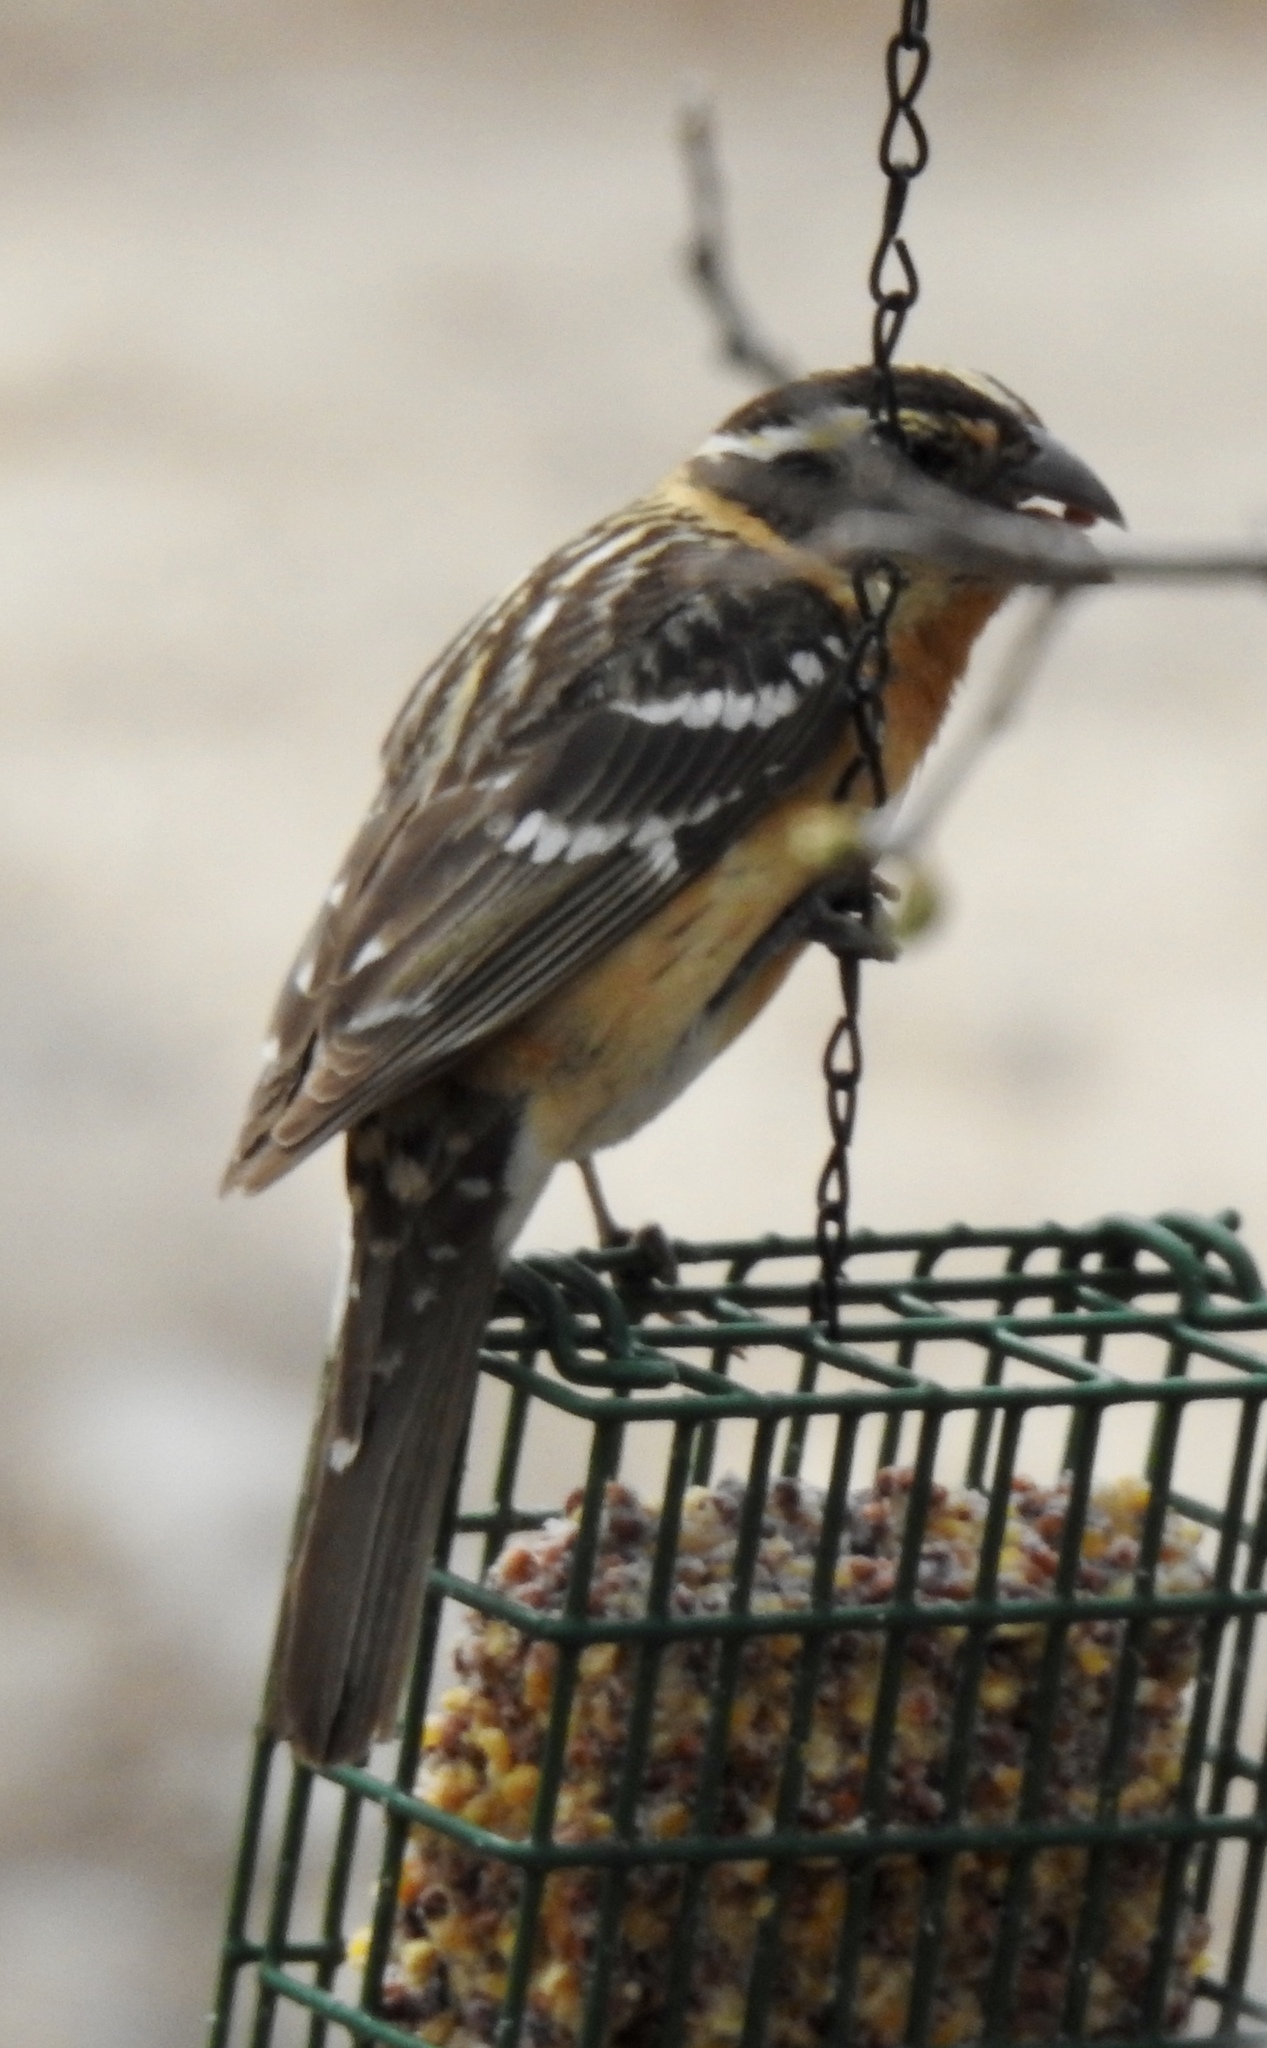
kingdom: Animalia
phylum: Chordata
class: Aves
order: Passeriformes
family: Cardinalidae
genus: Pheucticus
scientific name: Pheucticus melanocephalus
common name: Black-headed grosbeak
